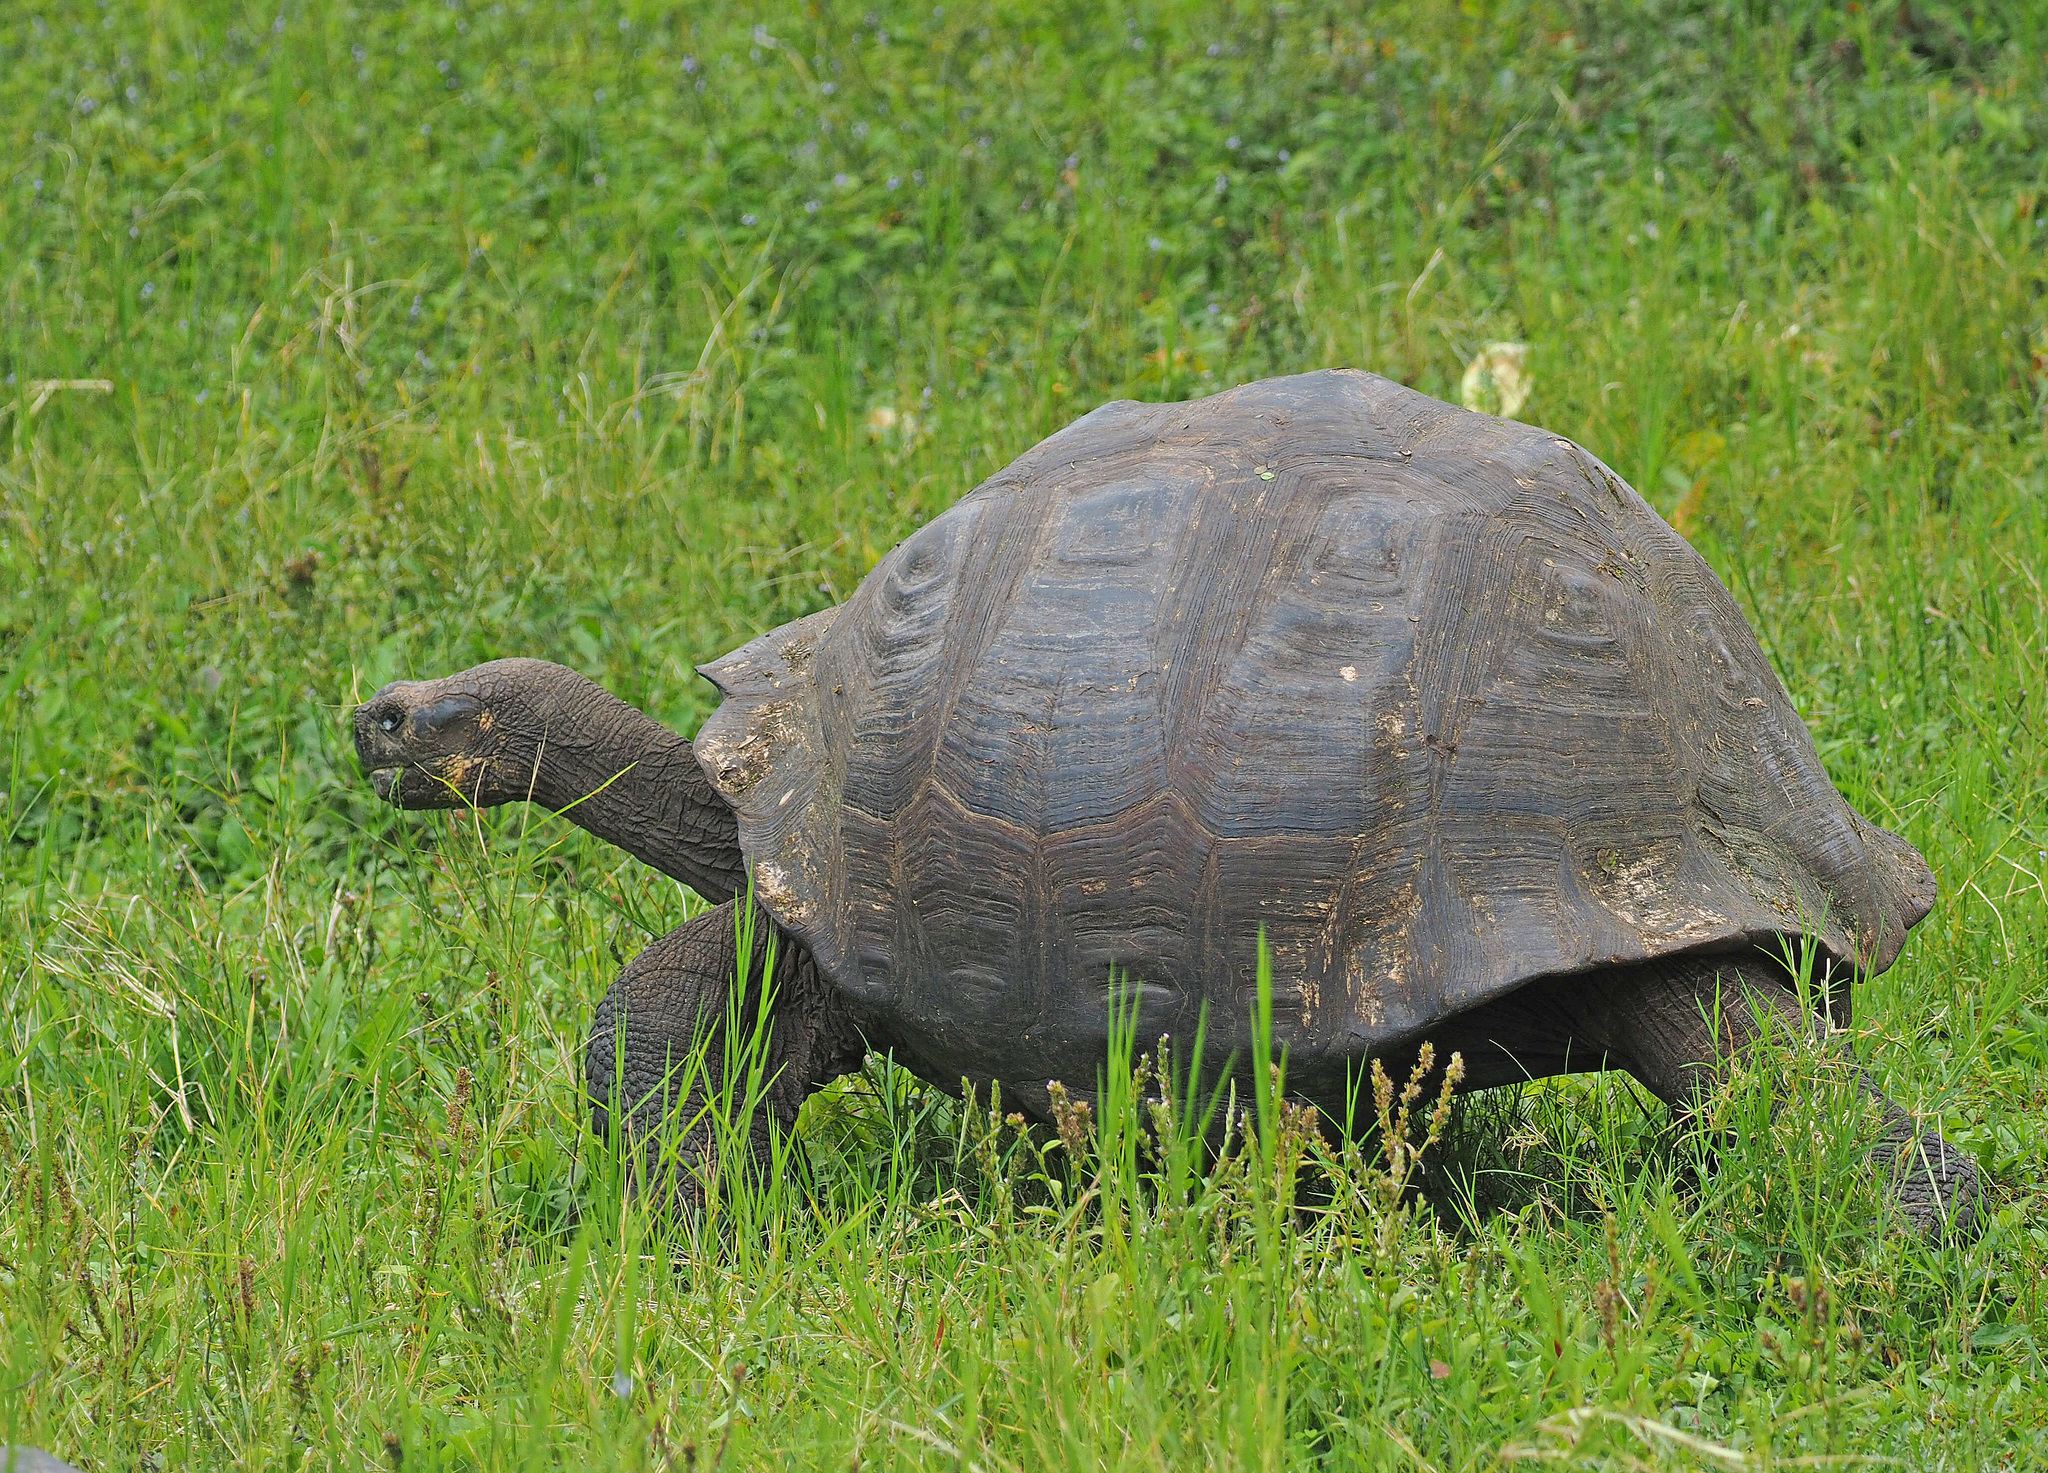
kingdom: Animalia
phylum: Chordata
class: Testudines
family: Testudinidae
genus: Chelonoidis
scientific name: Chelonoidis porteri
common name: Indefatigable island giant tortoise
